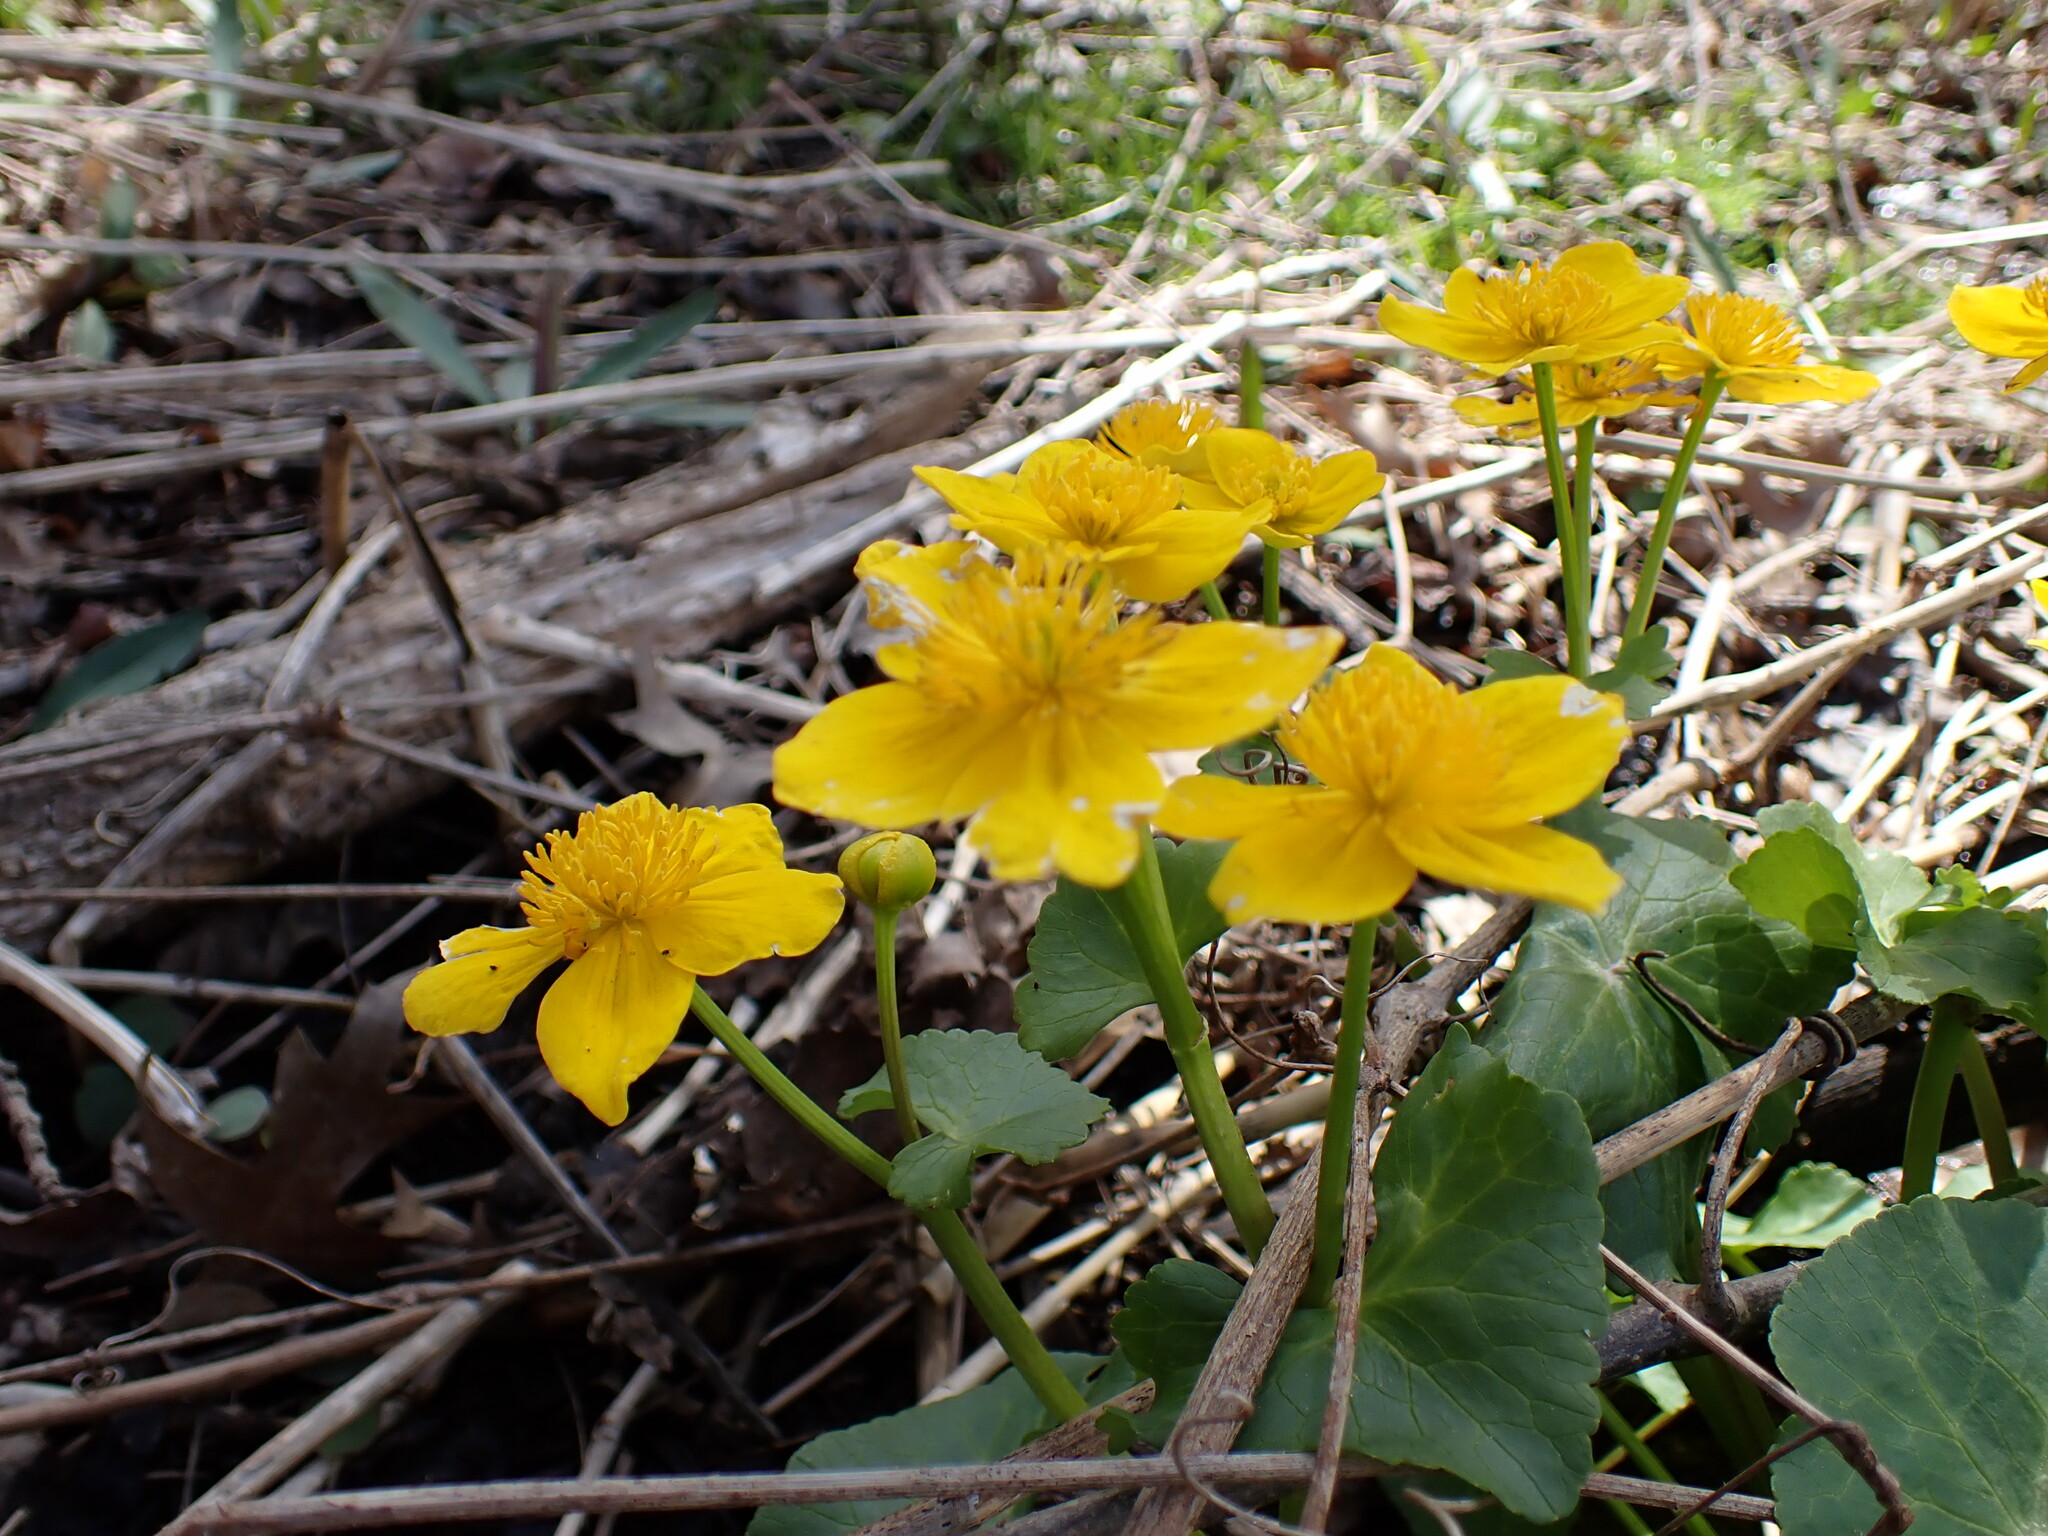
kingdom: Plantae
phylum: Tracheophyta
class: Magnoliopsida
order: Ranunculales
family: Ranunculaceae
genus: Caltha
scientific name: Caltha palustris
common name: Marsh marigold
